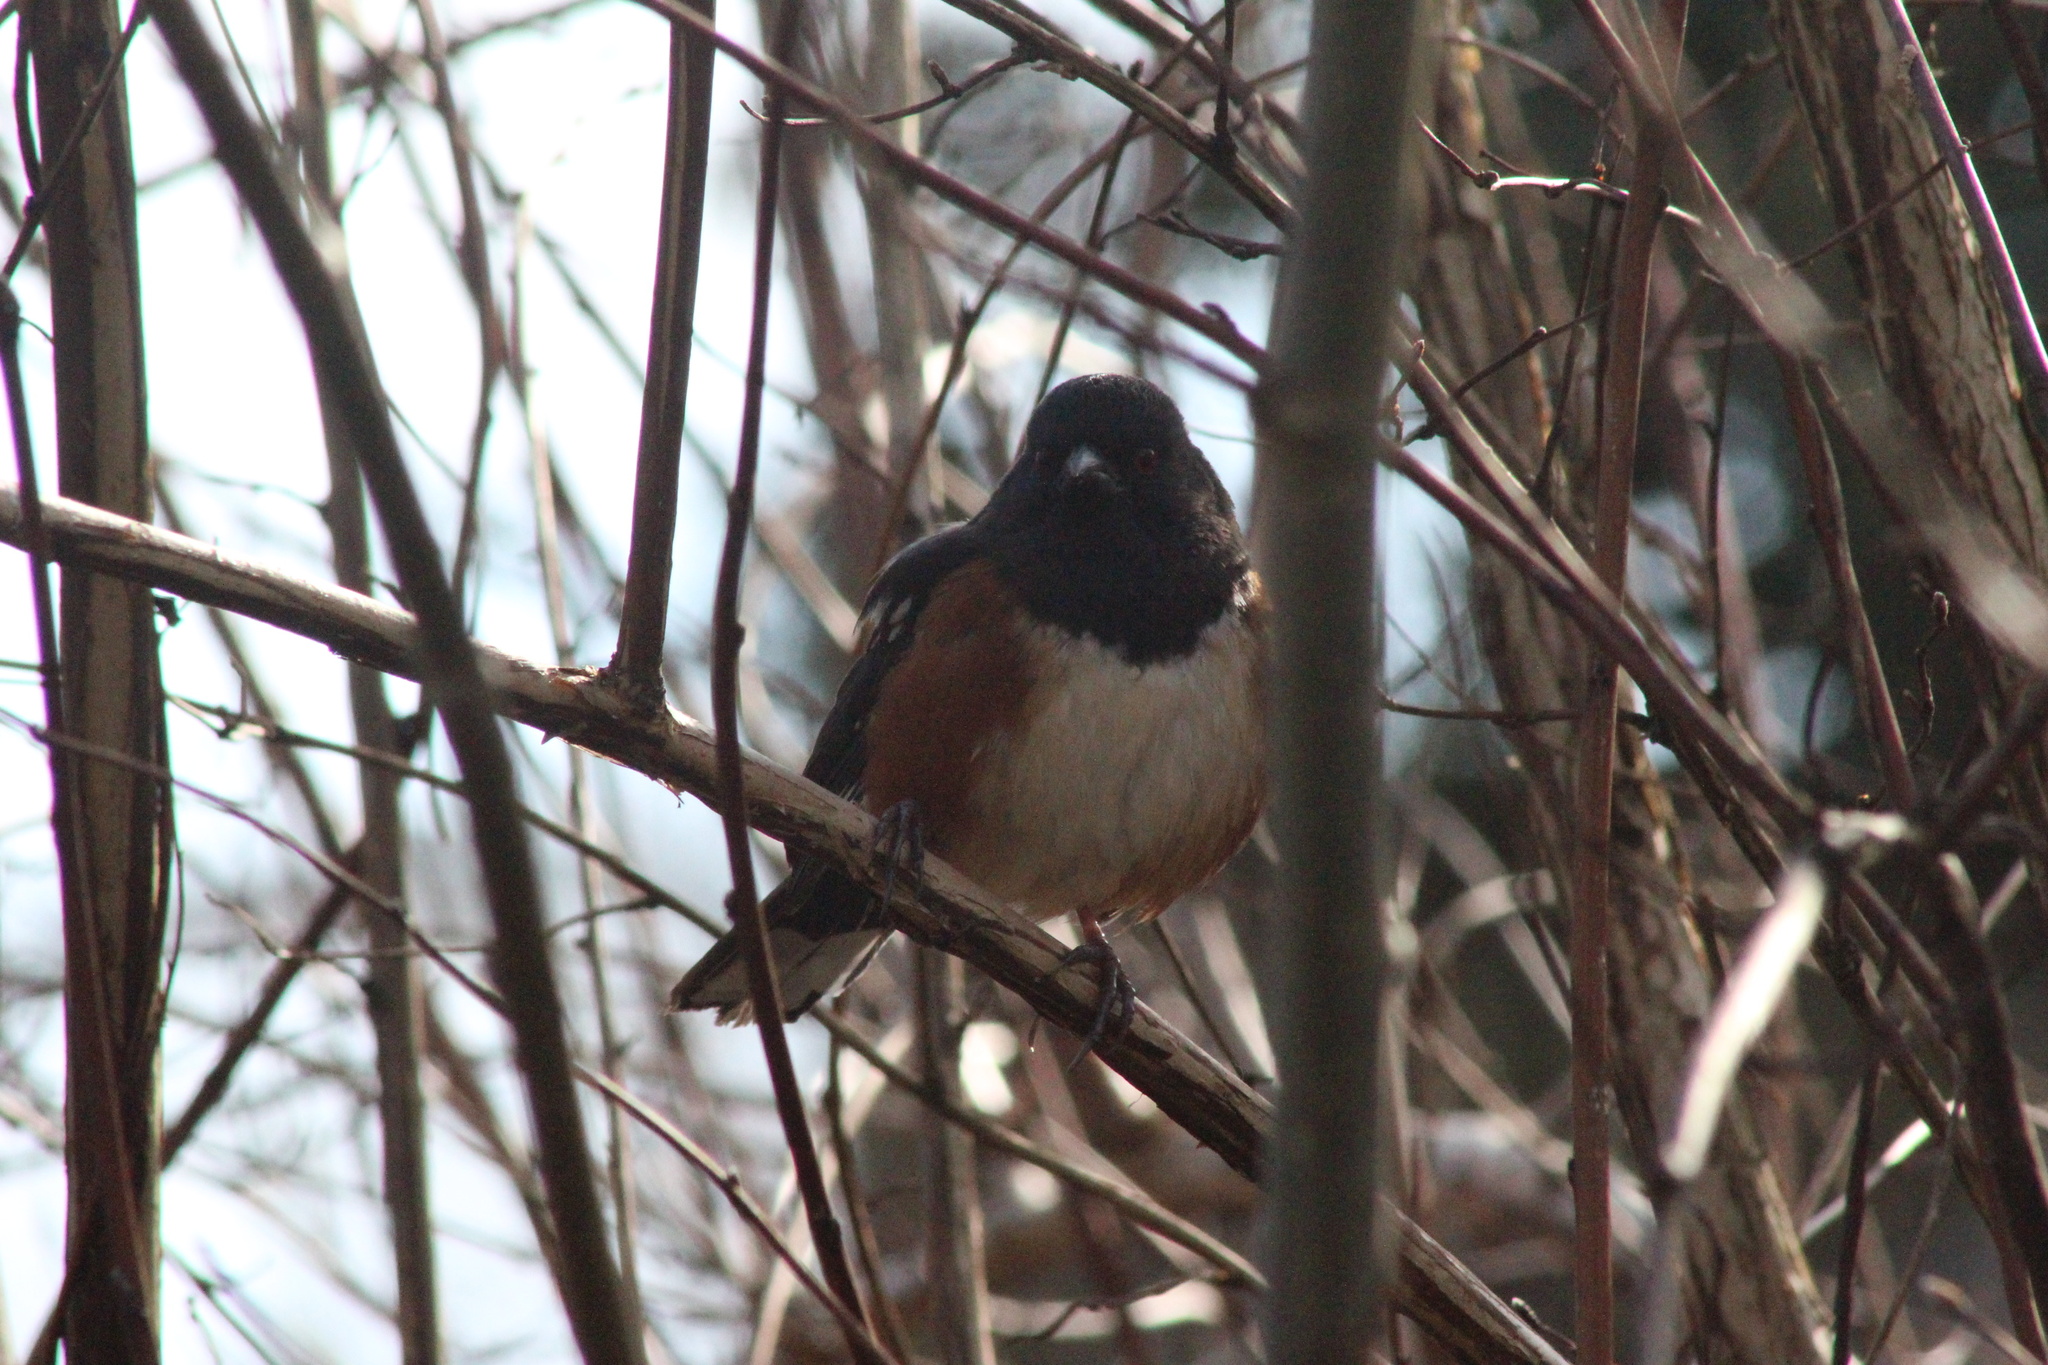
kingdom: Animalia
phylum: Chordata
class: Aves
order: Passeriformes
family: Passerellidae
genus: Pipilo
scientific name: Pipilo maculatus
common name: Spotted towhee
